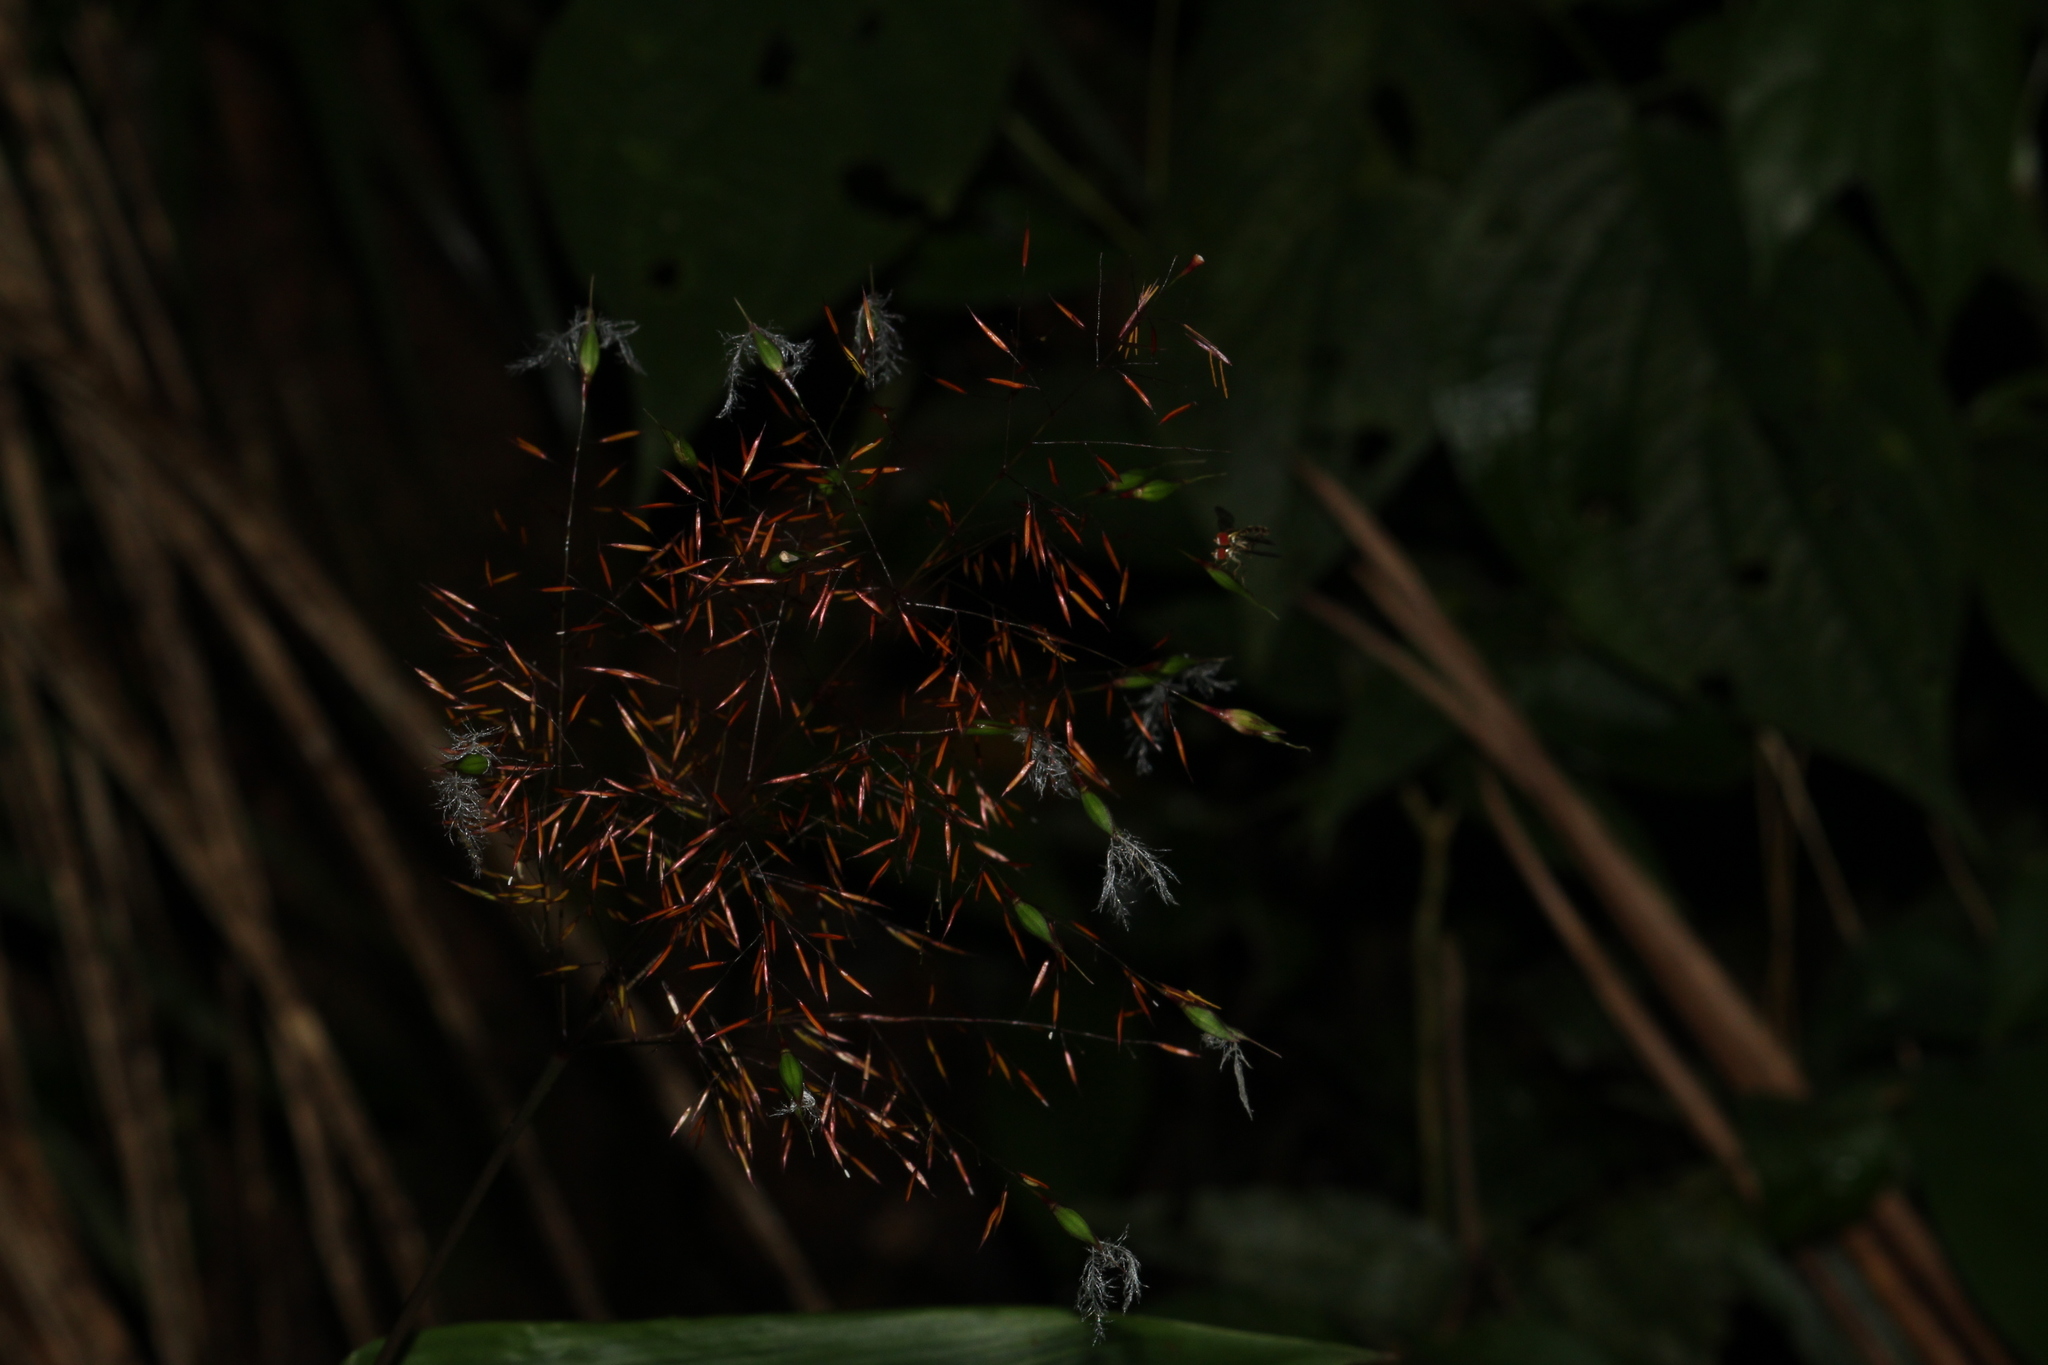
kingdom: Plantae
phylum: Tracheophyta
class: Liliopsida
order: Poales
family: Poaceae
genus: Olyra
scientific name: Olyra glaberrima
